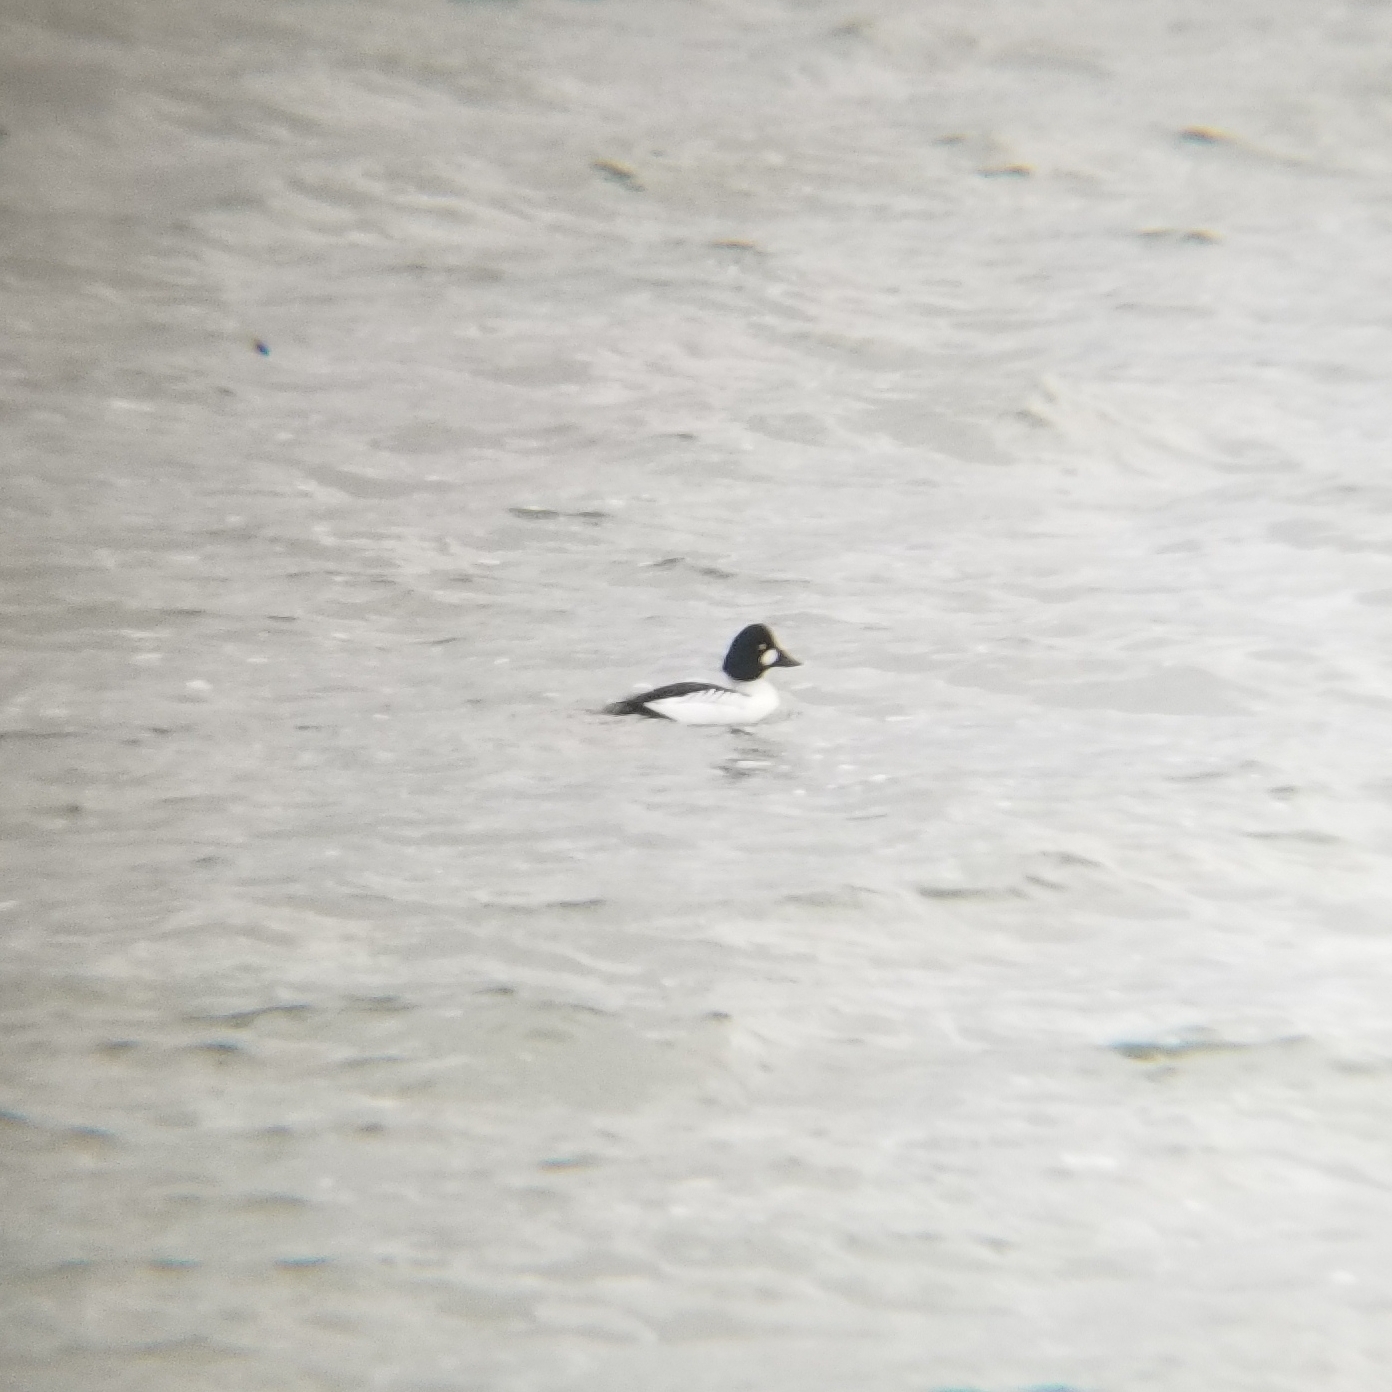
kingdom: Animalia
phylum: Chordata
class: Aves
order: Anseriformes
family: Anatidae
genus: Bucephala
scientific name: Bucephala clangula
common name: Common goldeneye
